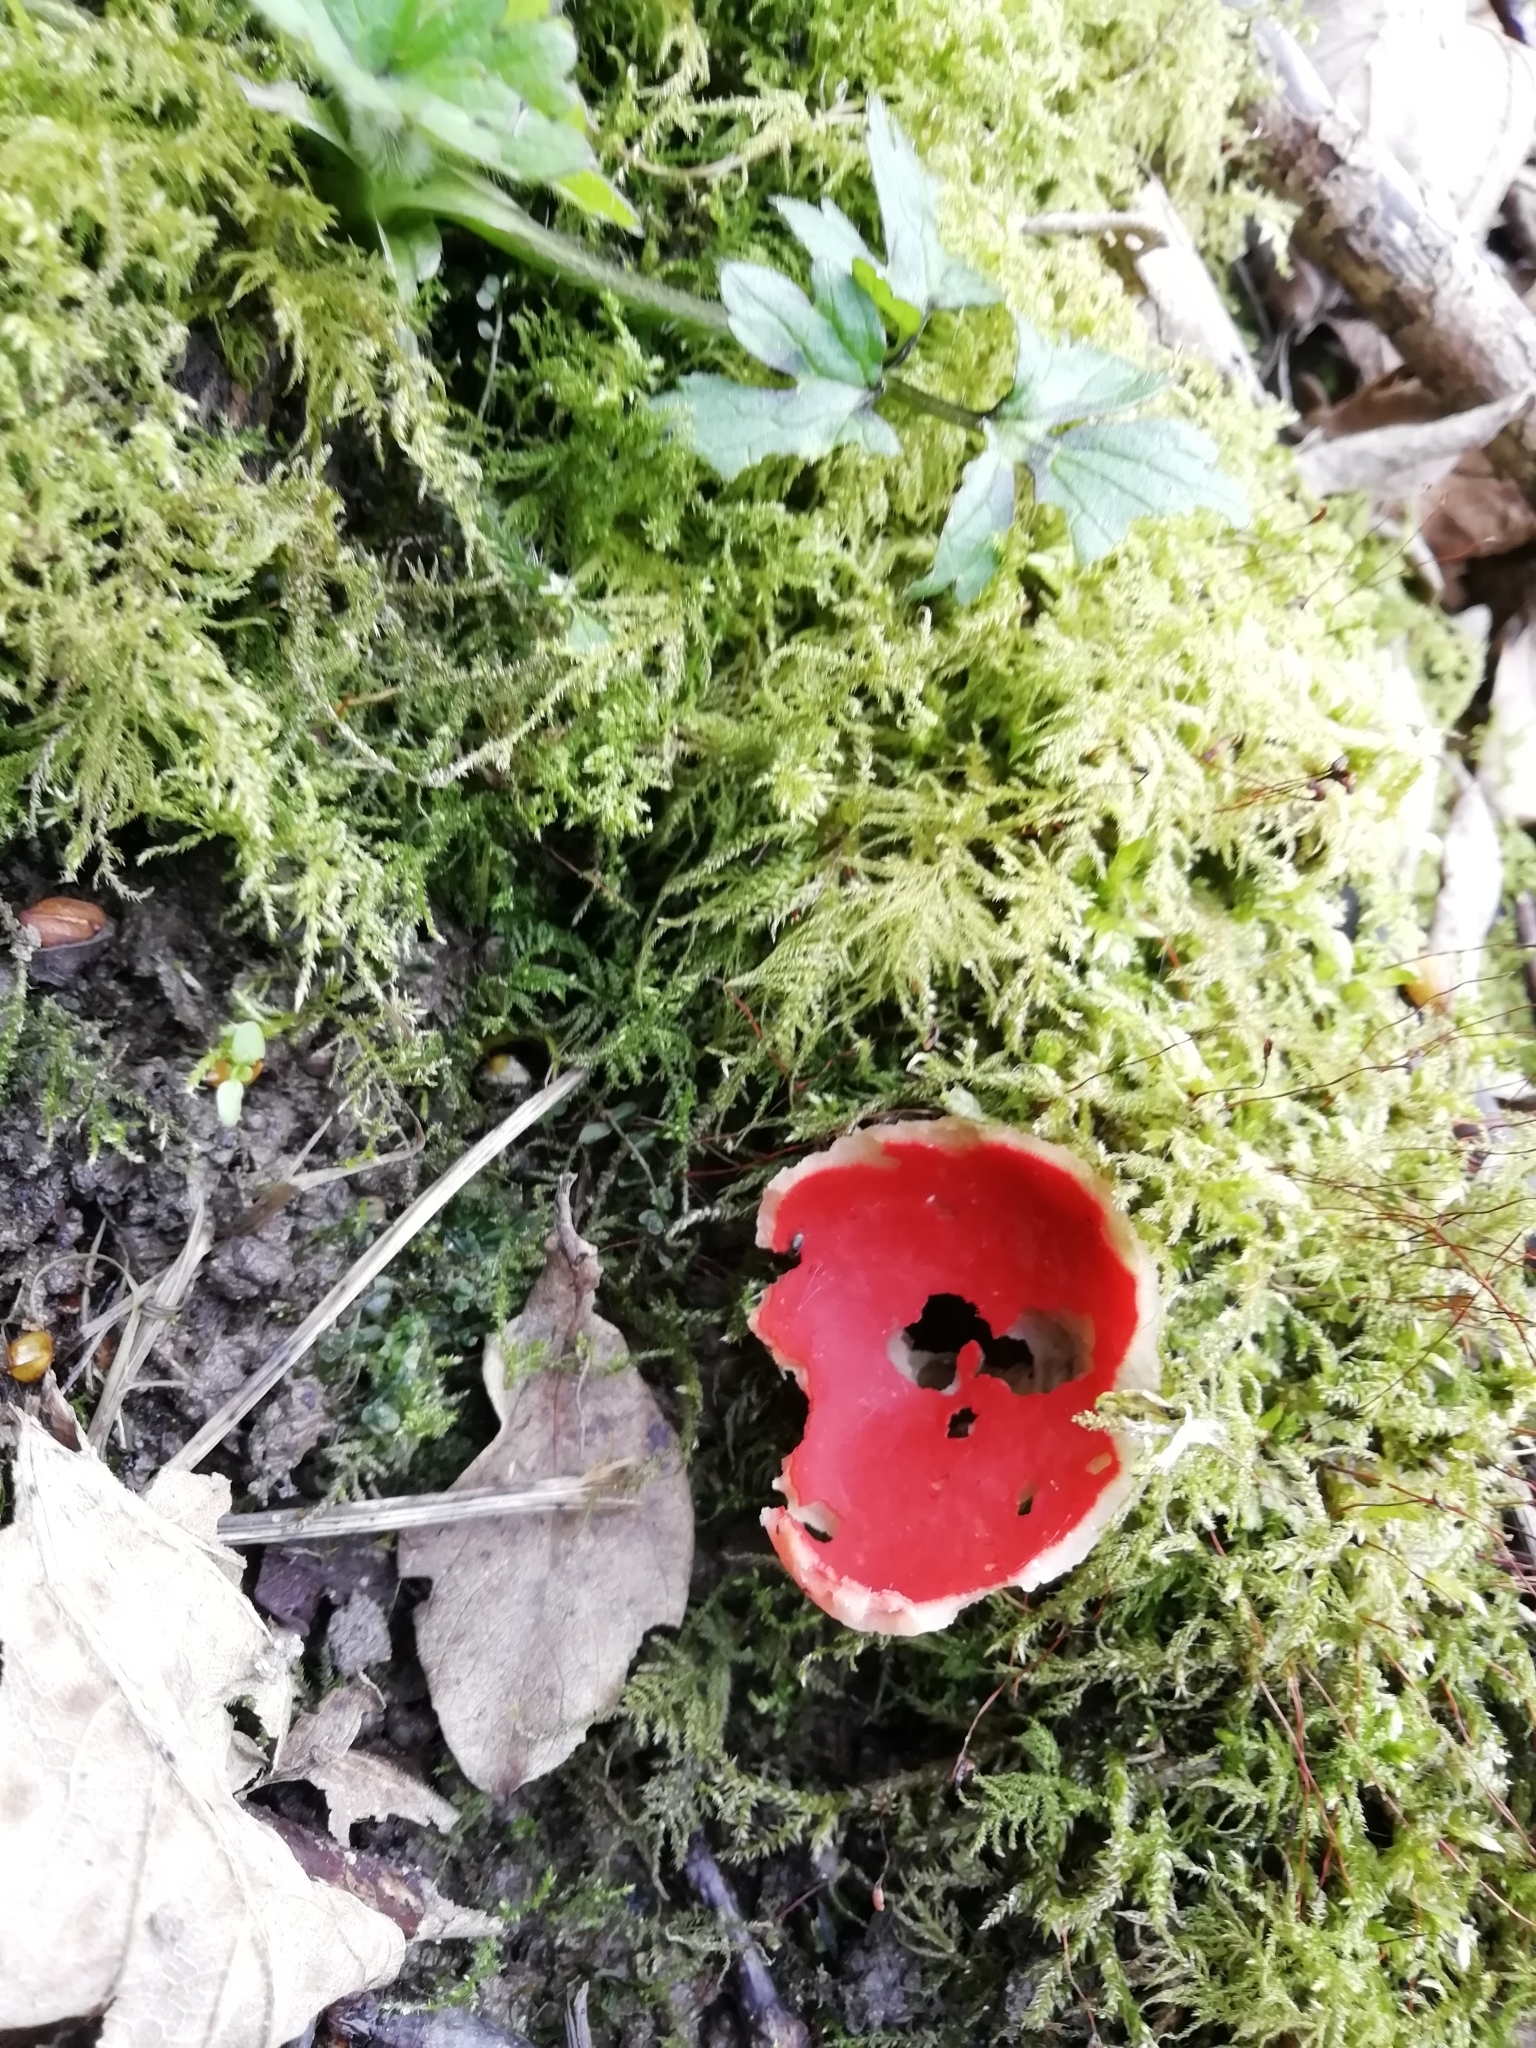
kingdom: Fungi
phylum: Ascomycota
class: Pezizomycetes
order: Pezizales
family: Sarcoscyphaceae
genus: Sarcoscypha
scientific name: Sarcoscypha
